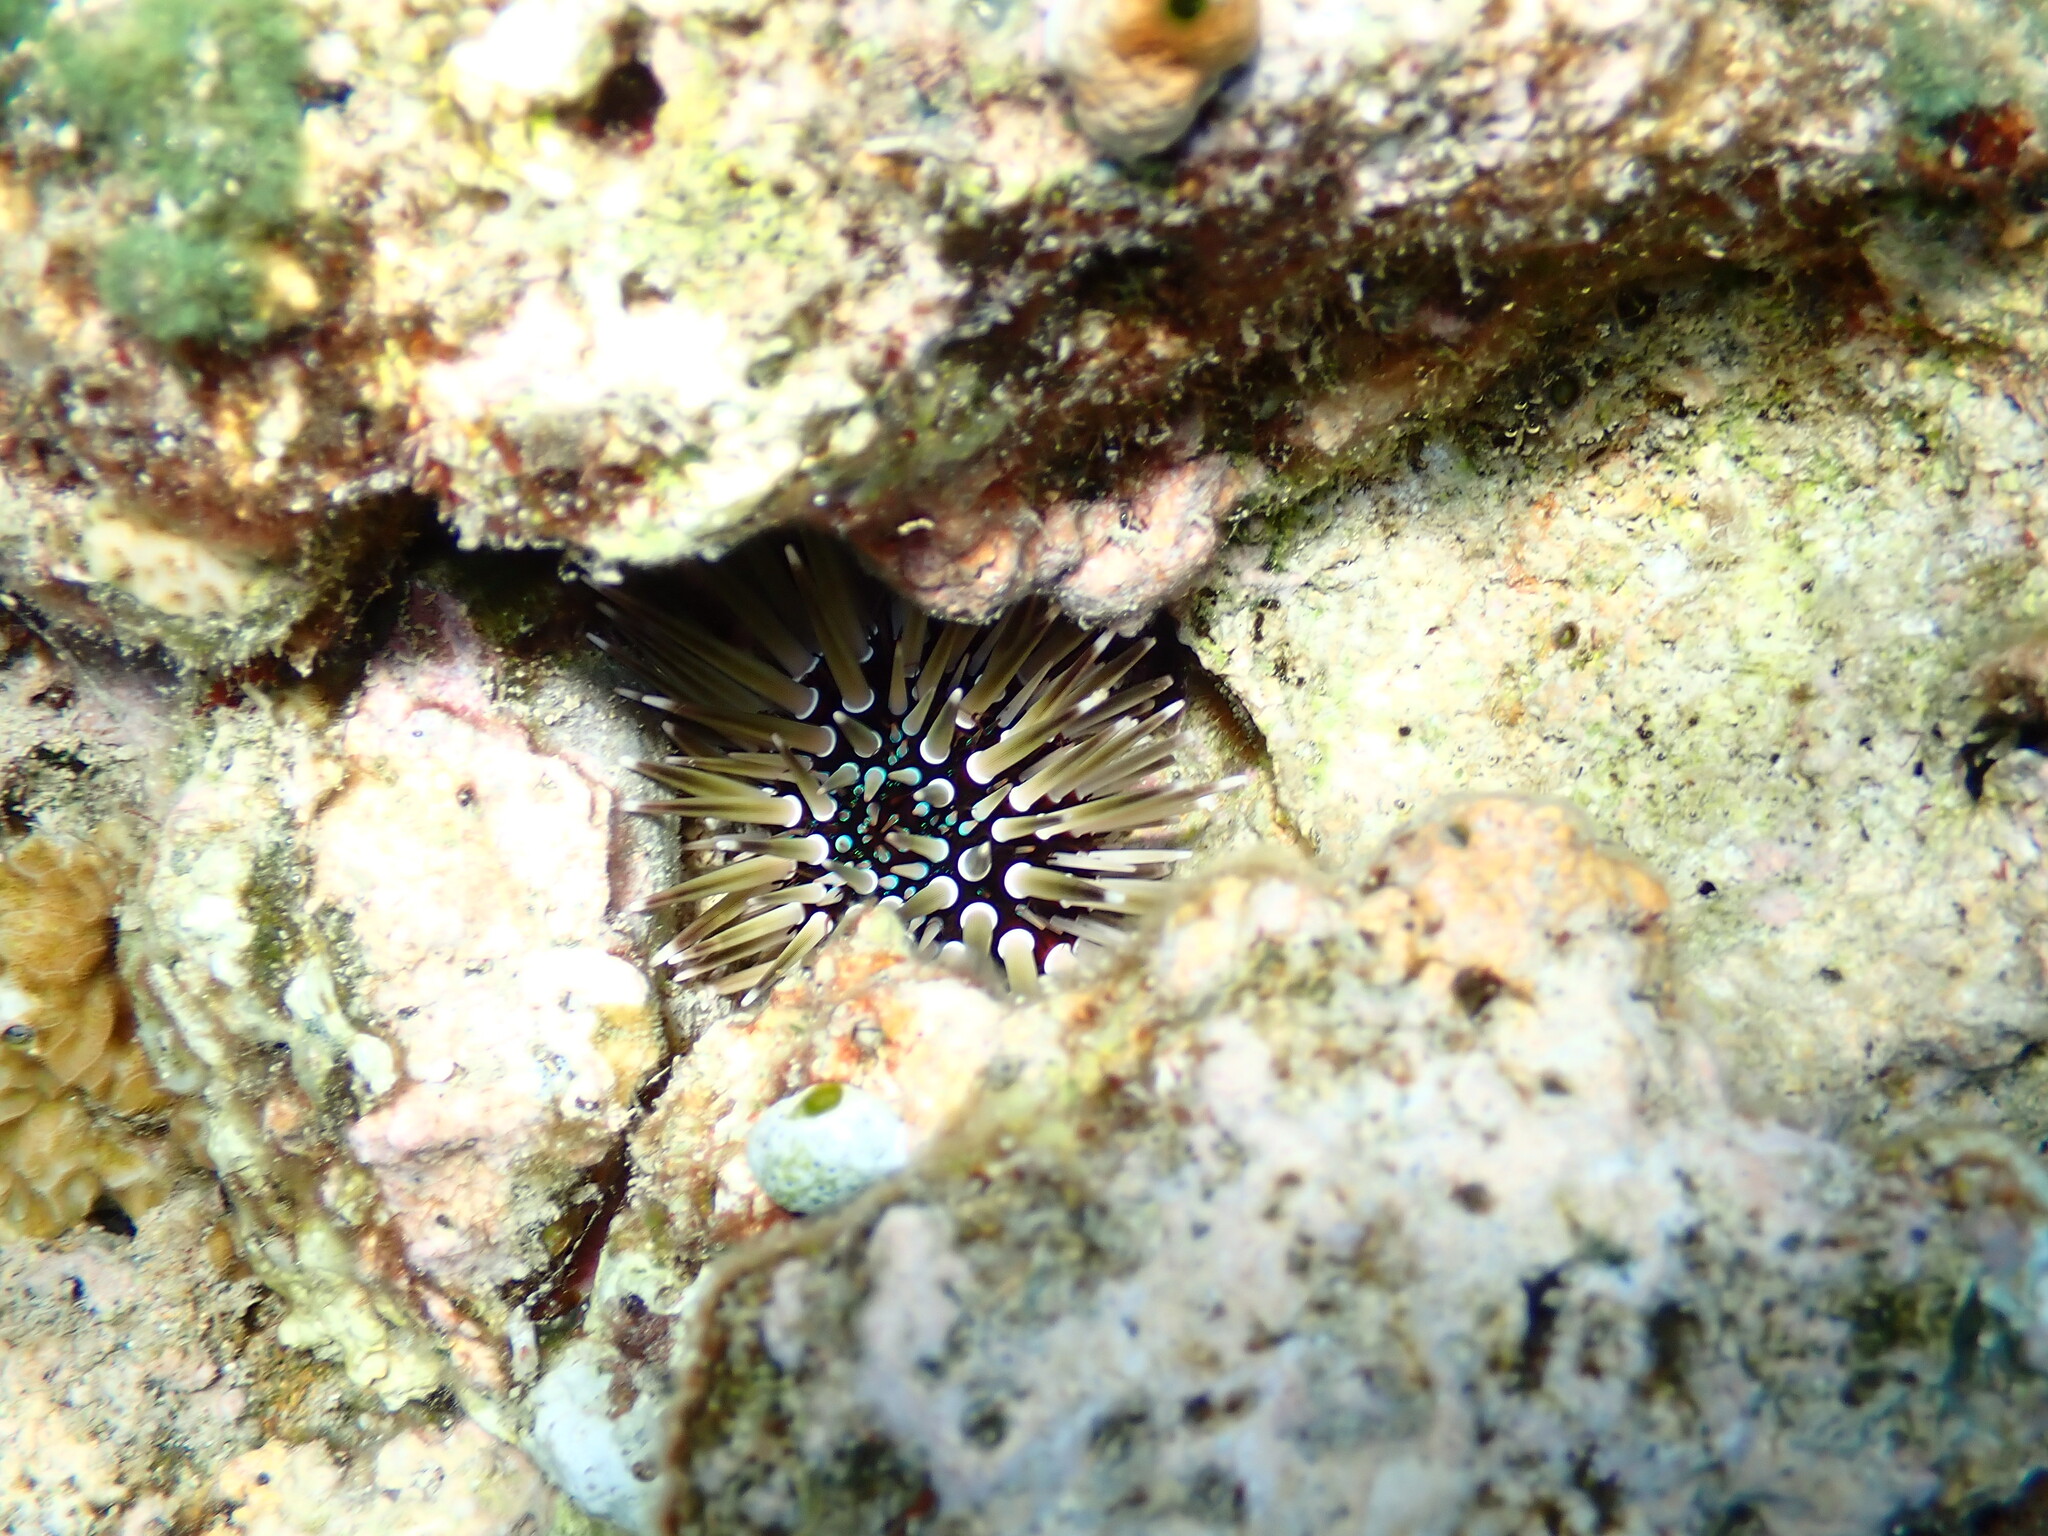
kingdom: Animalia
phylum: Echinodermata
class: Echinoidea
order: Camarodonta
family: Echinometridae
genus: Echinometra
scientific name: Echinometra mathaei
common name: Rock-boring urchin
